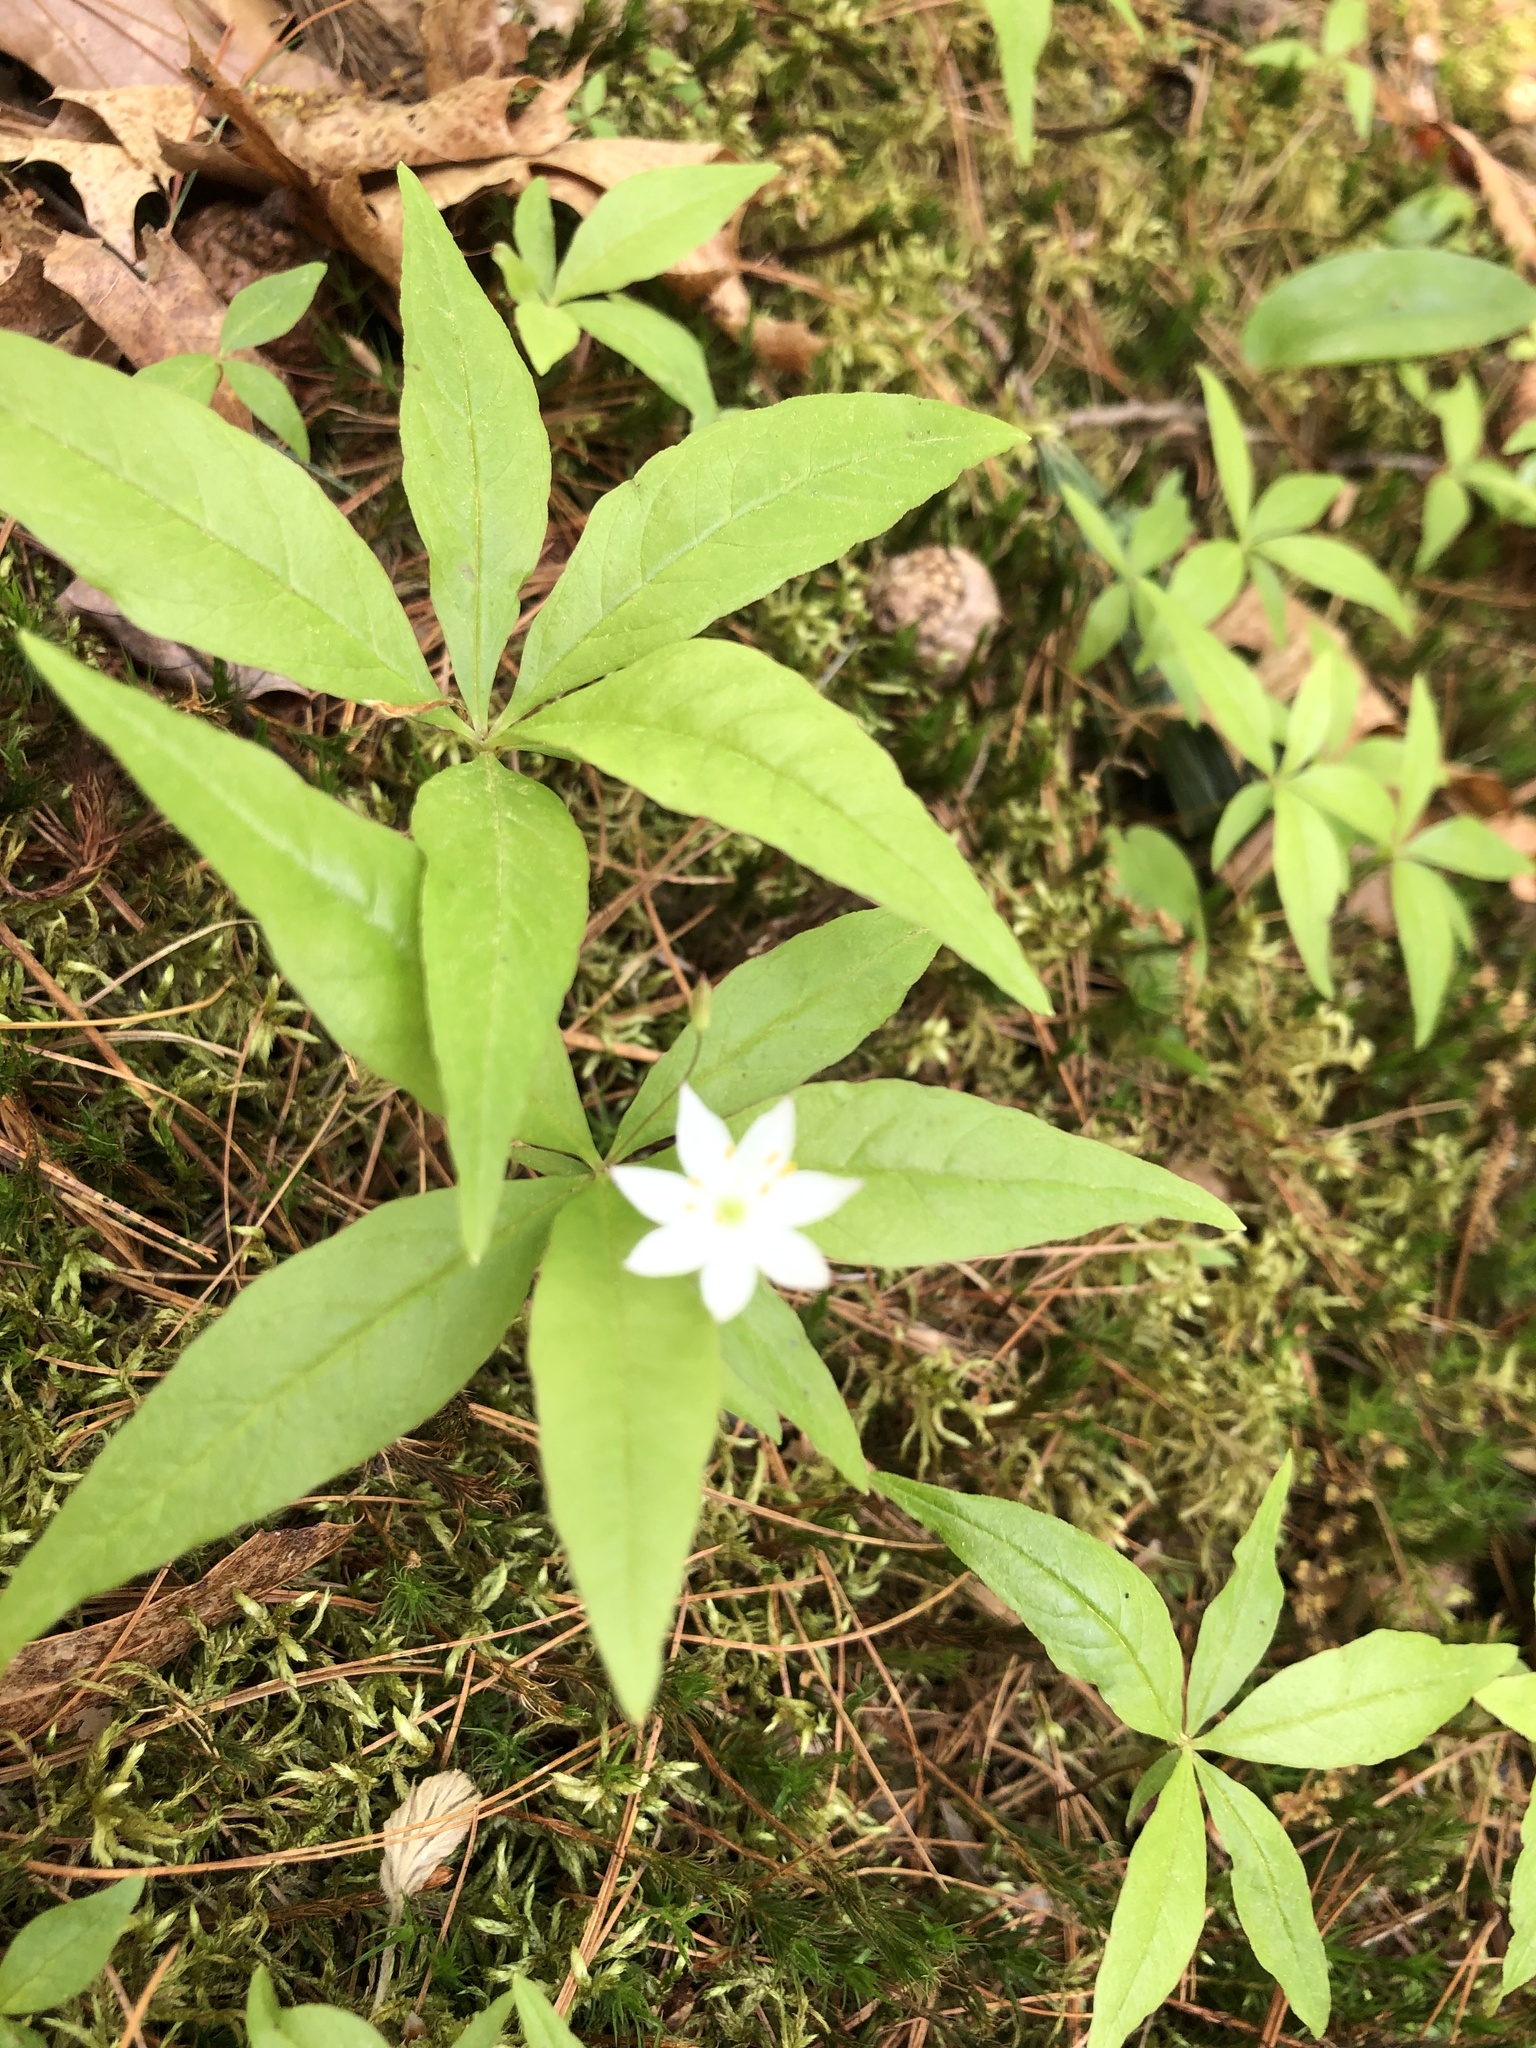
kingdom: Plantae
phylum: Tracheophyta
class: Magnoliopsida
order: Ericales
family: Primulaceae
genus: Lysimachia
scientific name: Lysimachia borealis
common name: American starflower
